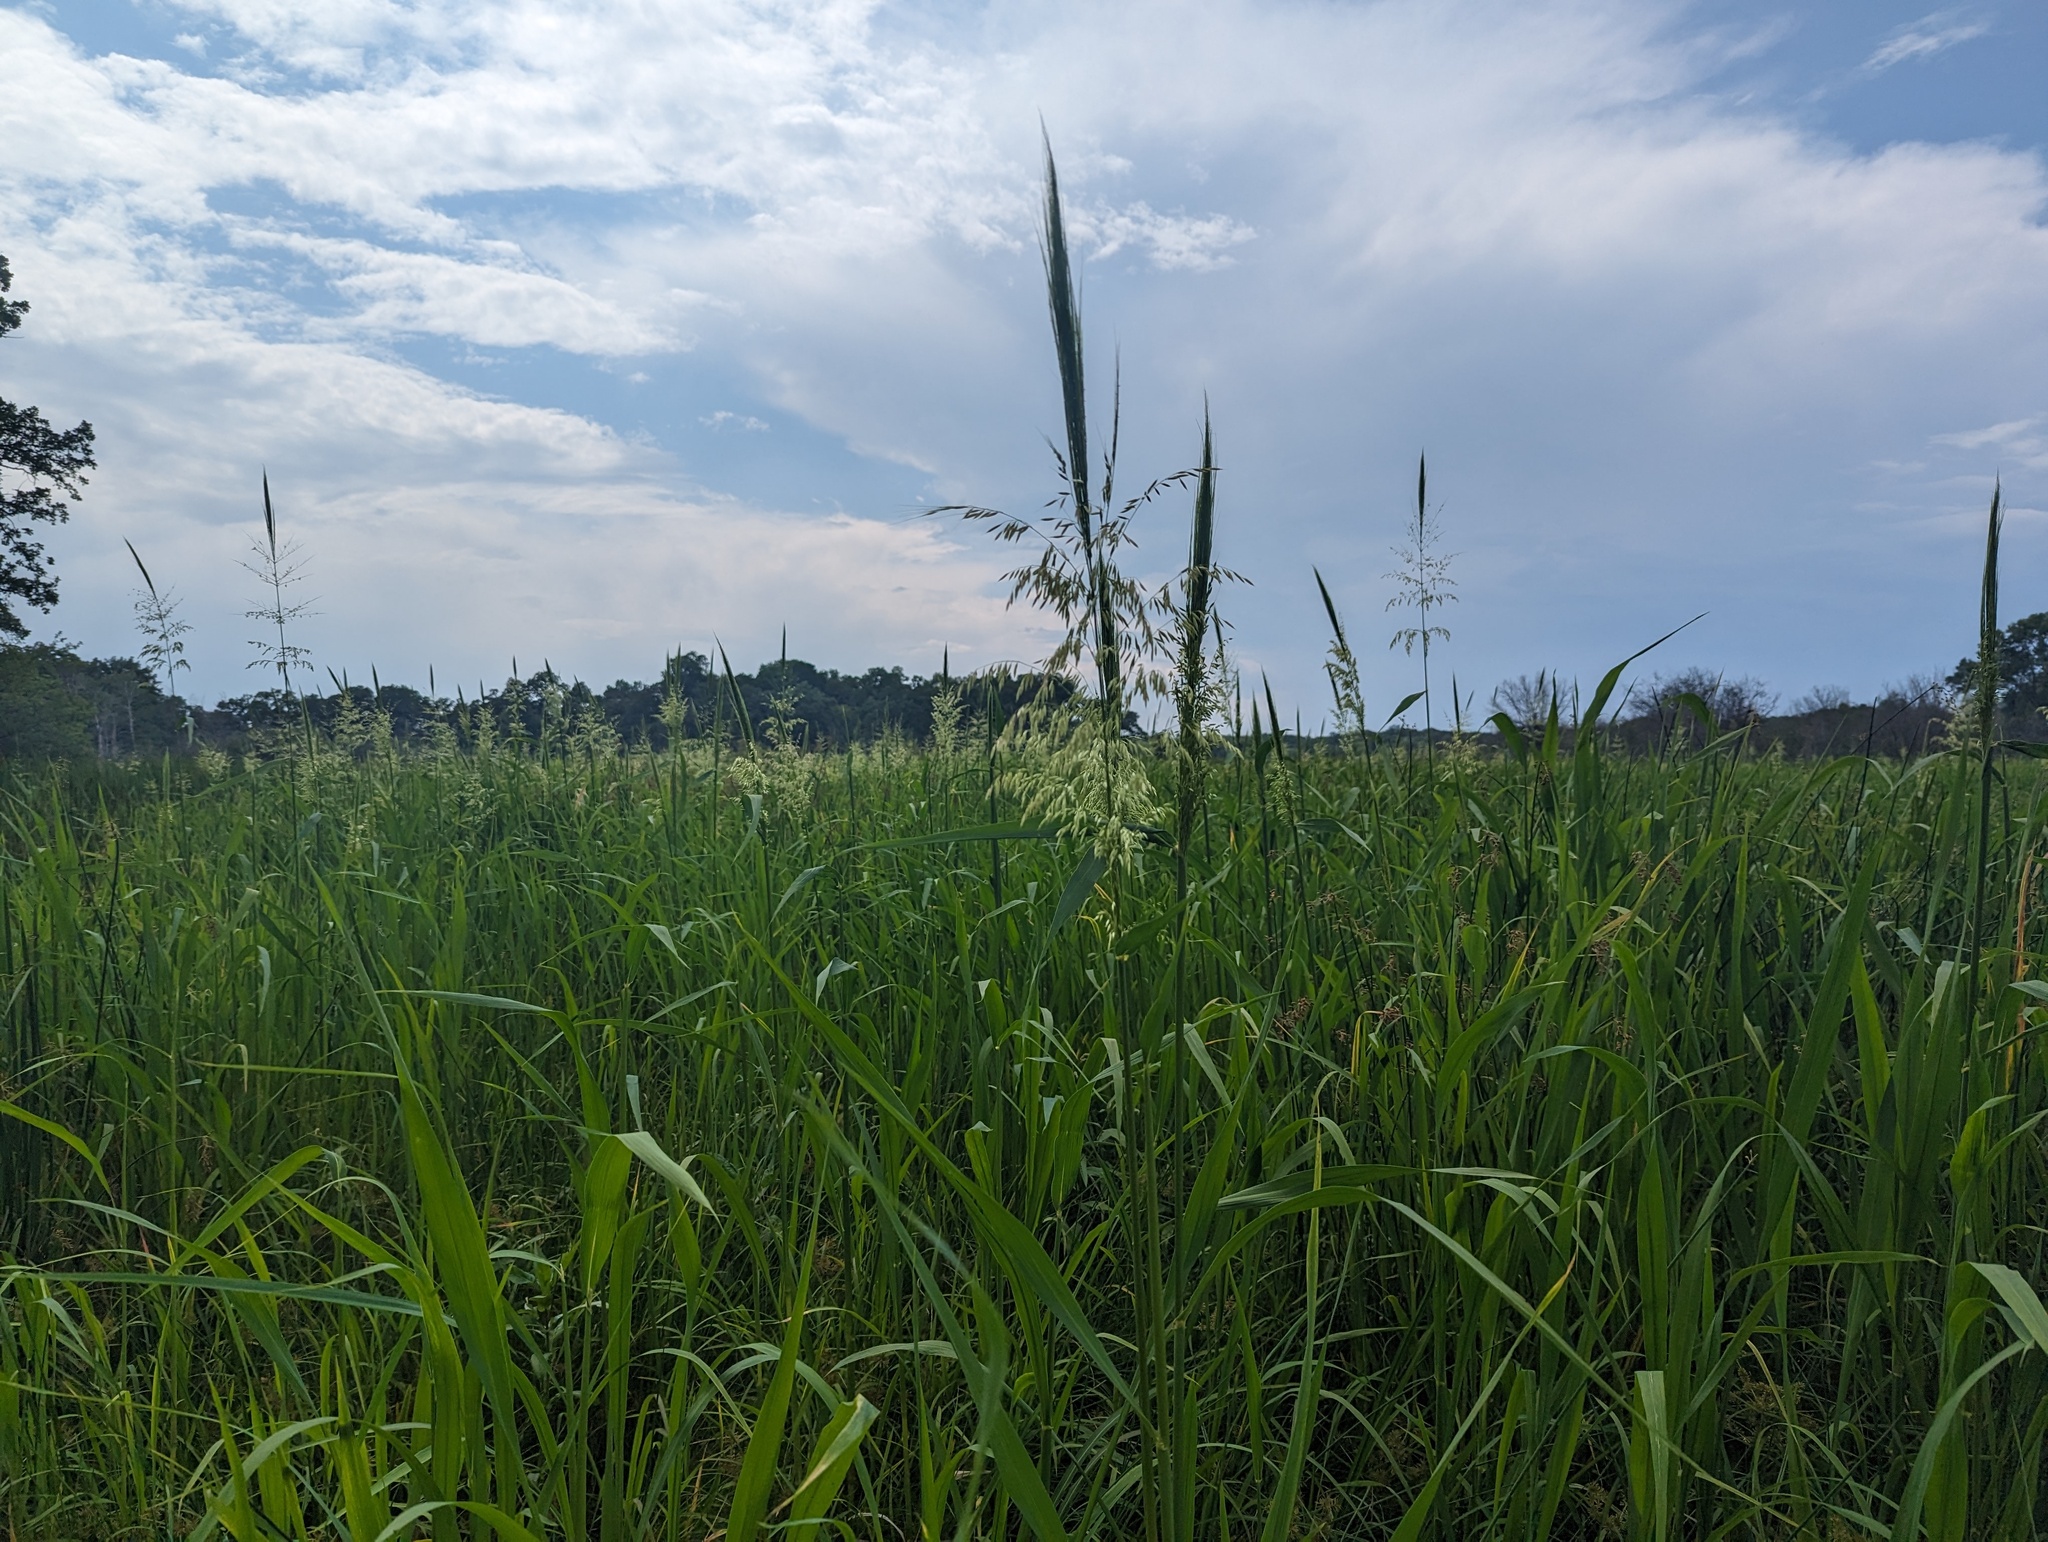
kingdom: Plantae
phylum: Tracheophyta
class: Liliopsida
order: Poales
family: Poaceae
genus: Zizania
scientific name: Zizania aquatica
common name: Annual wildrice
